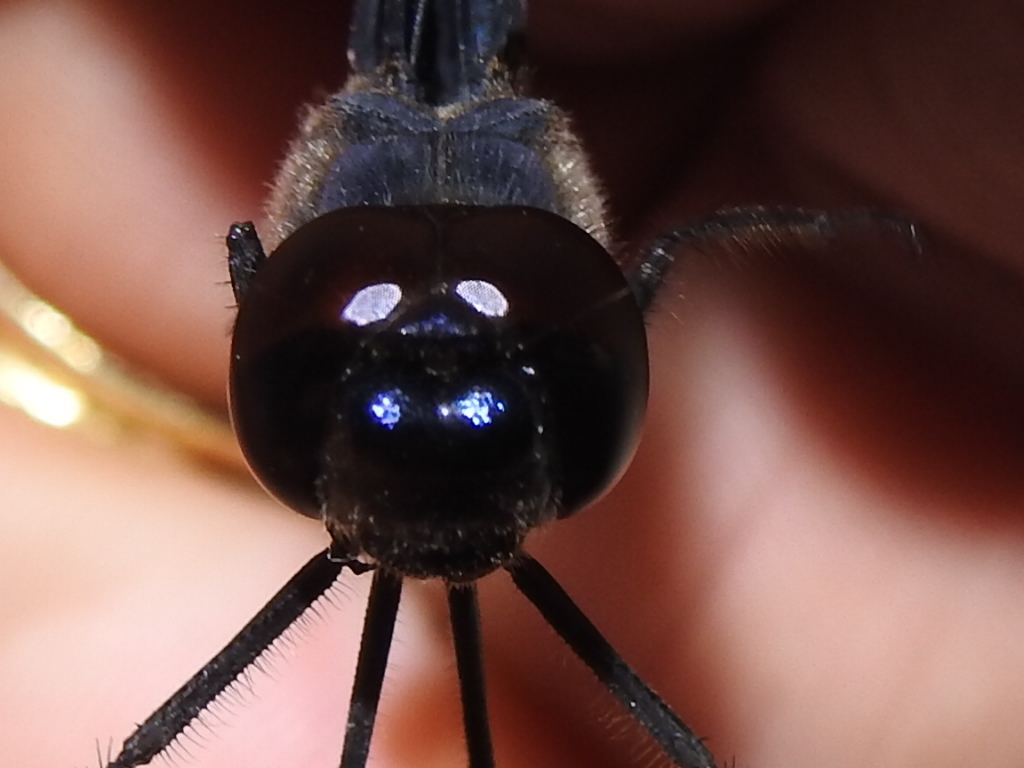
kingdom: Animalia
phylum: Arthropoda
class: Insecta
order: Odonata
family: Libellulidae
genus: Tramea
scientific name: Tramea lacerata
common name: Black saddlebags
